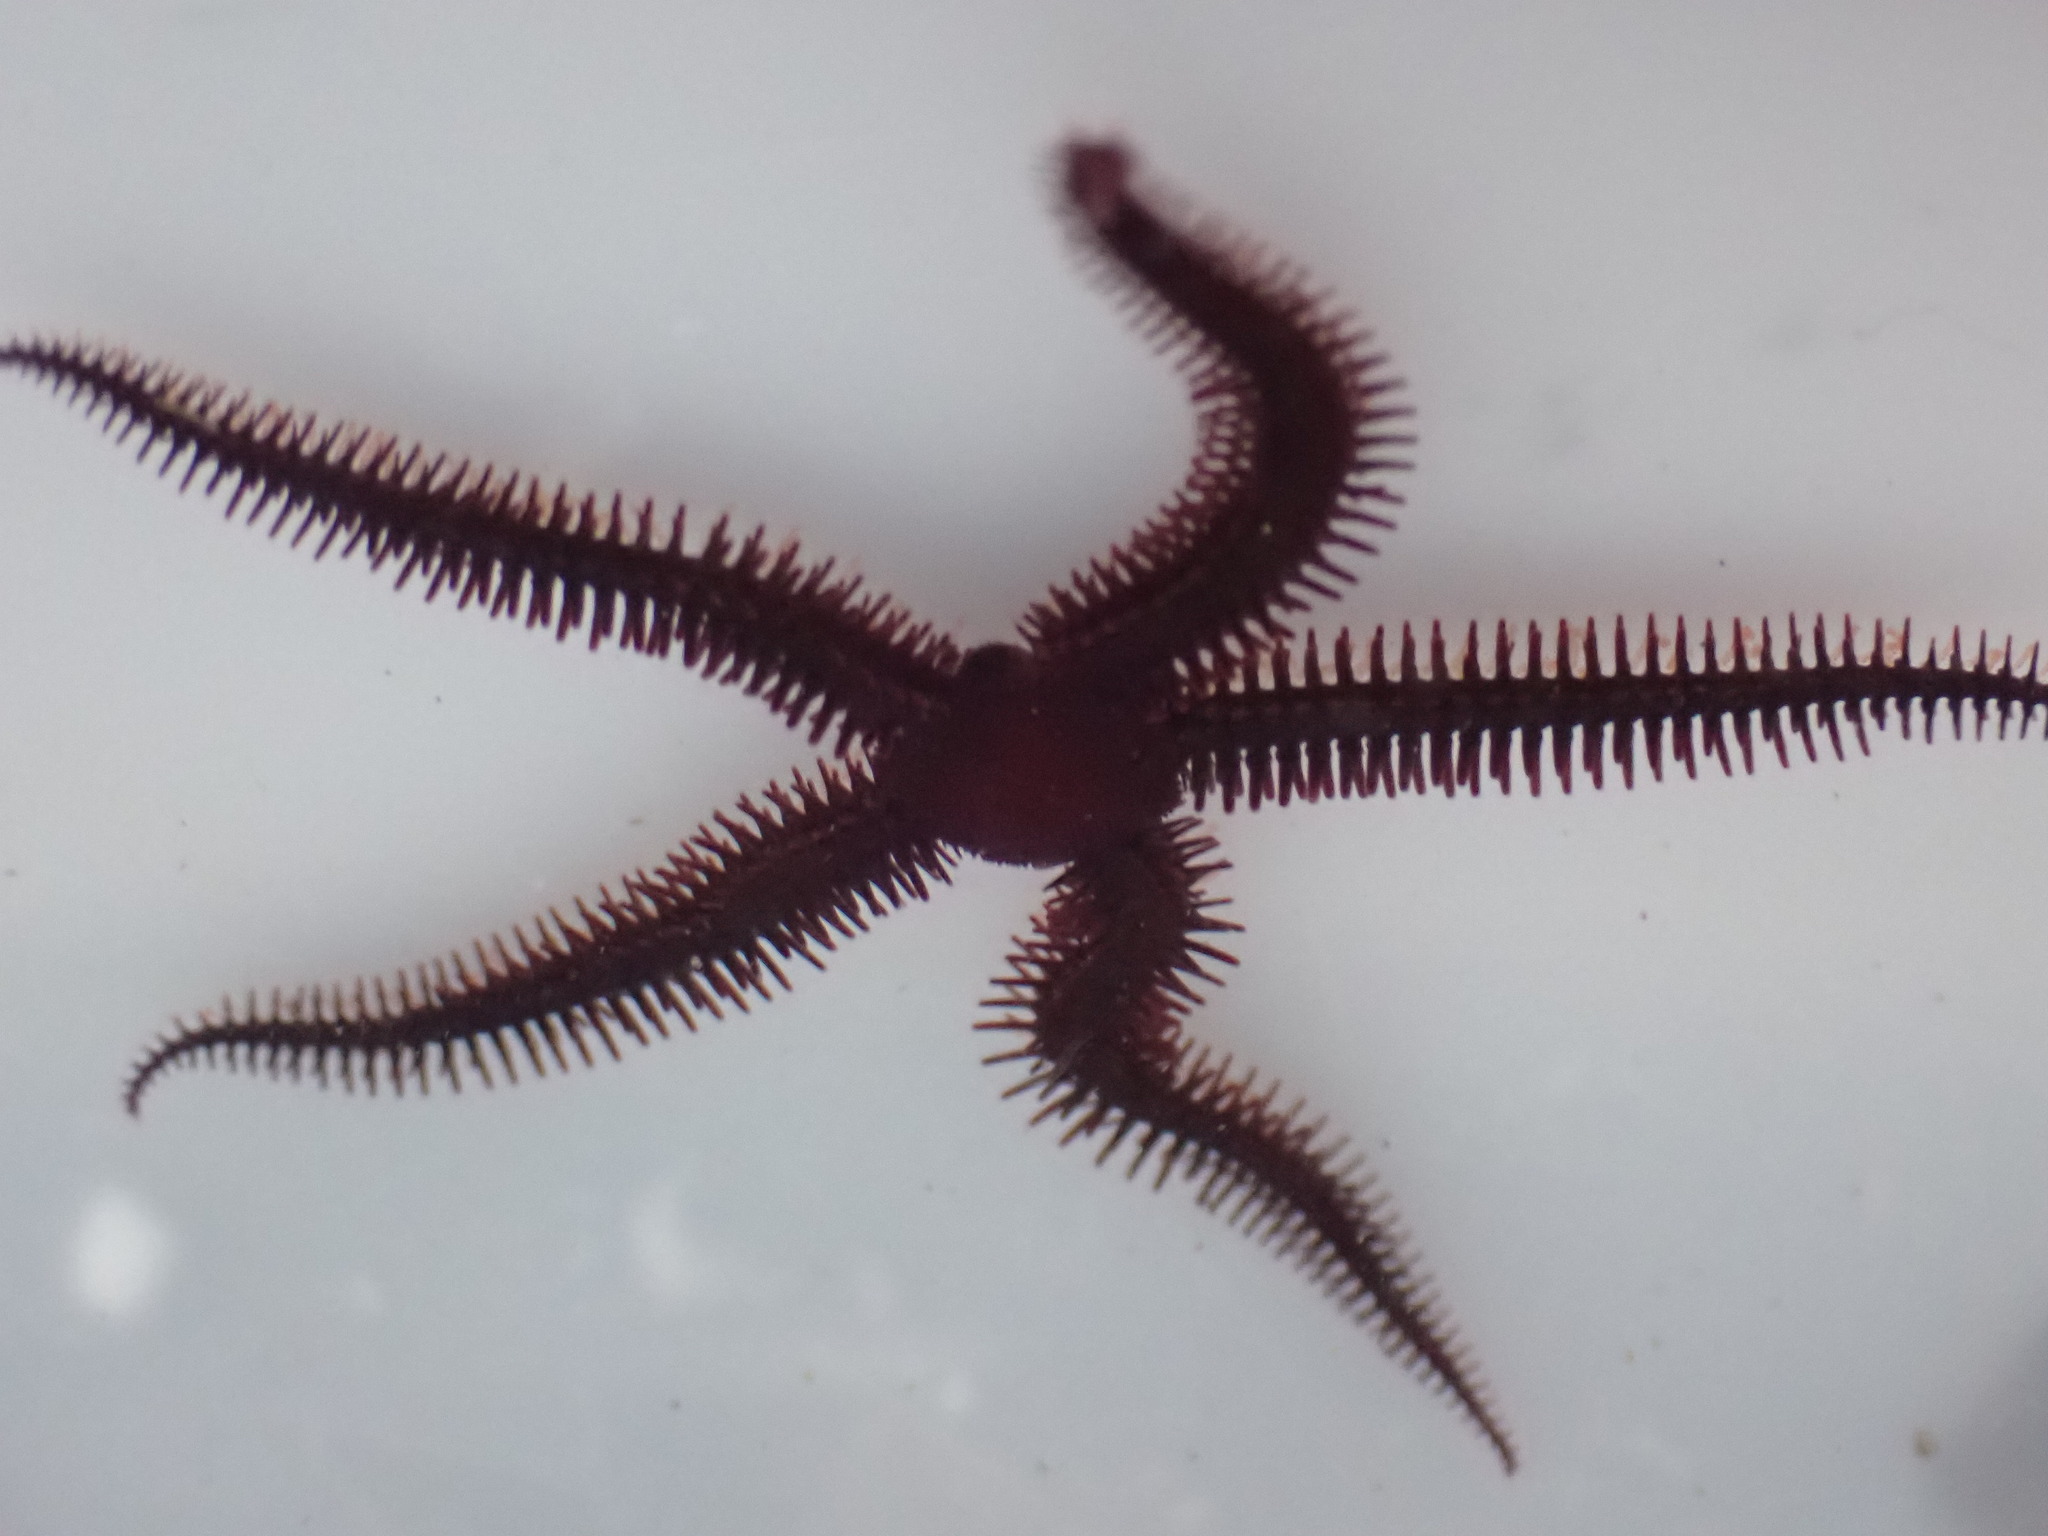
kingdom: Animalia
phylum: Echinodermata
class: Ophiuroidea
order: Ophiacanthida
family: Ophiopteridae
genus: Ophiopteris
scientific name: Ophiopteris antipodum
